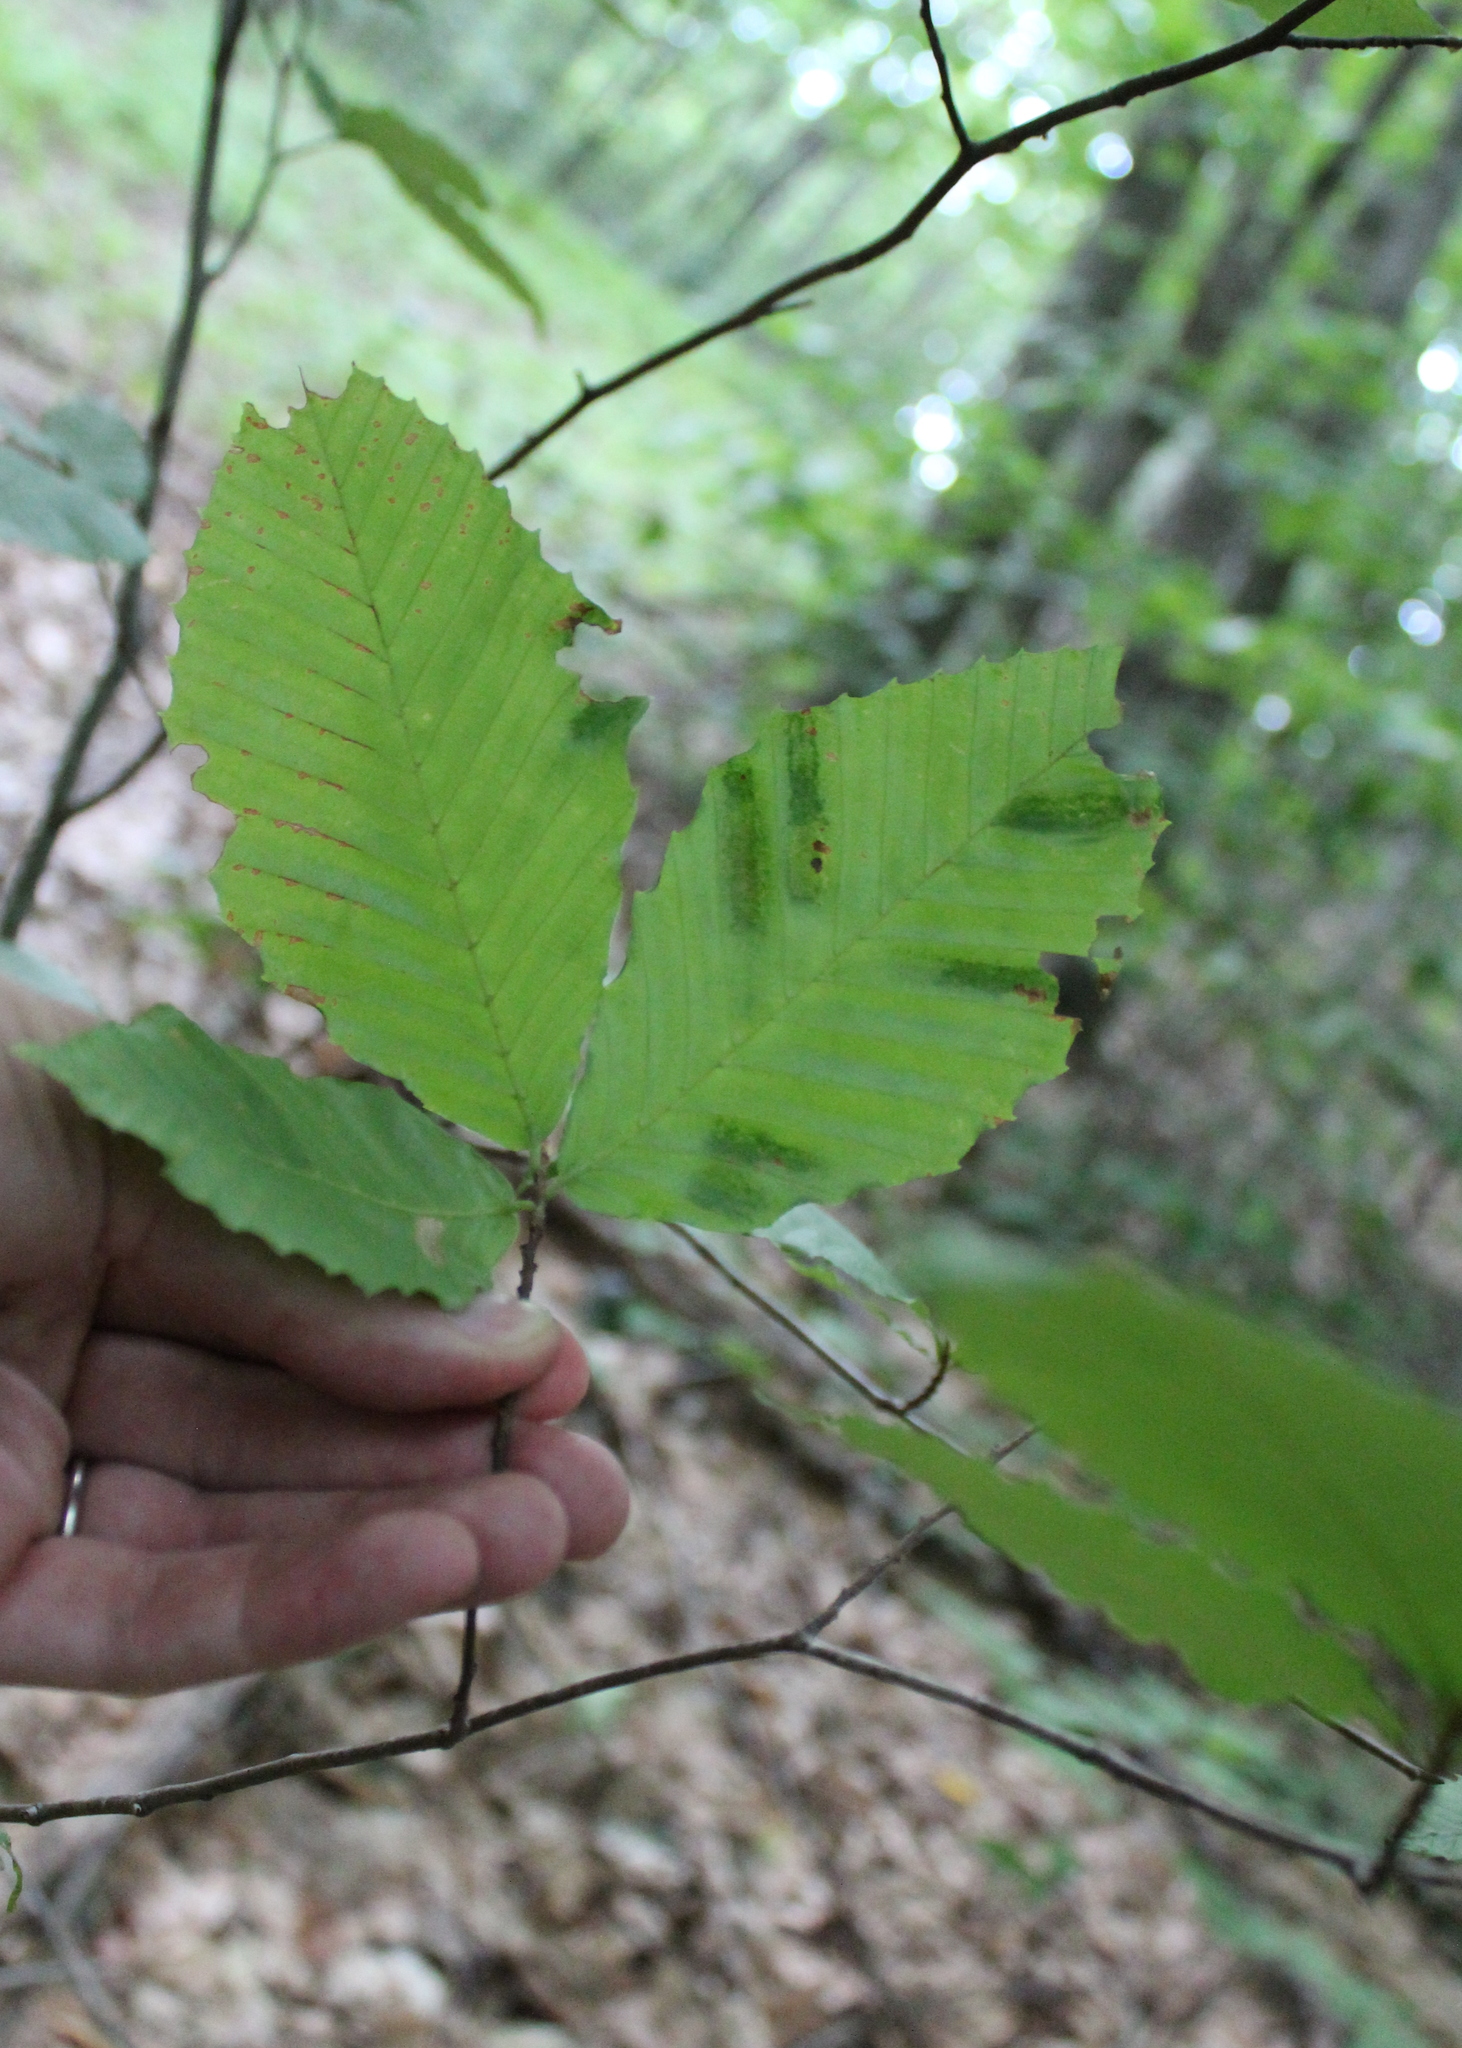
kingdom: Plantae
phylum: Tracheophyta
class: Magnoliopsida
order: Fagales
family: Fagaceae
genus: Fagus
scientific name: Fagus grandifolia
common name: American beech
